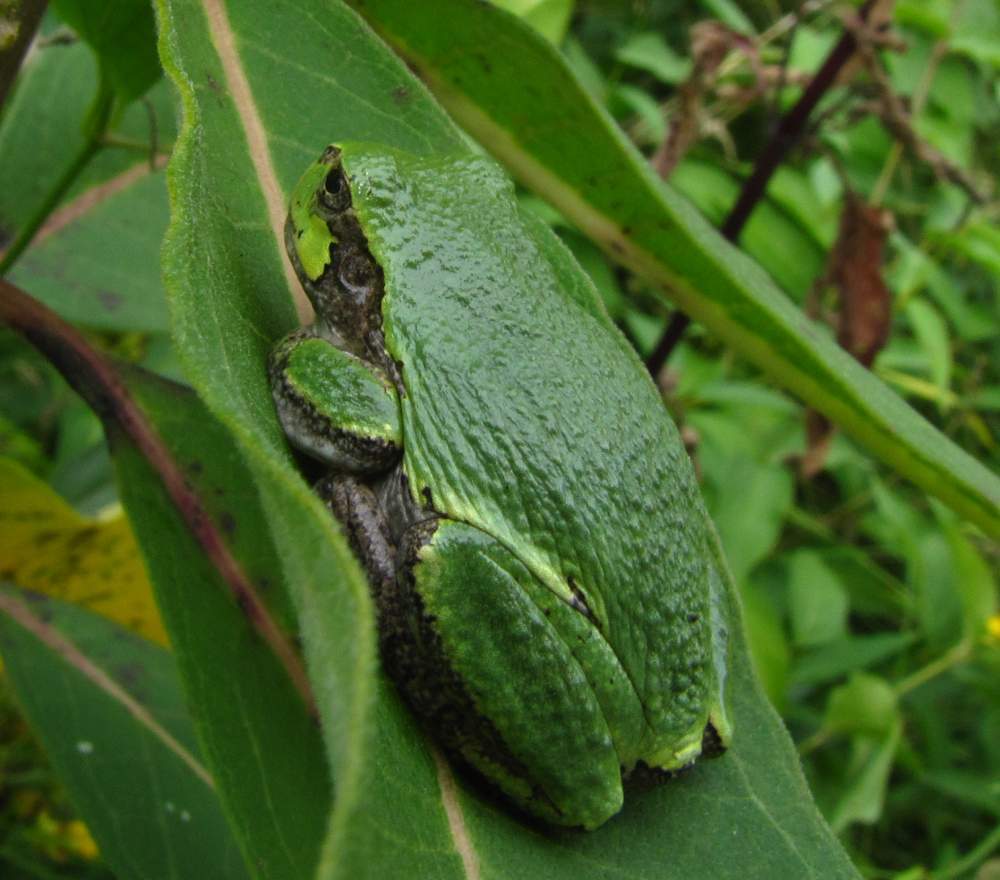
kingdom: Animalia
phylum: Chordata
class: Amphibia
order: Anura
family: Hylidae
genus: Dryophytes
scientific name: Dryophytes versicolor
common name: Gray treefrog
